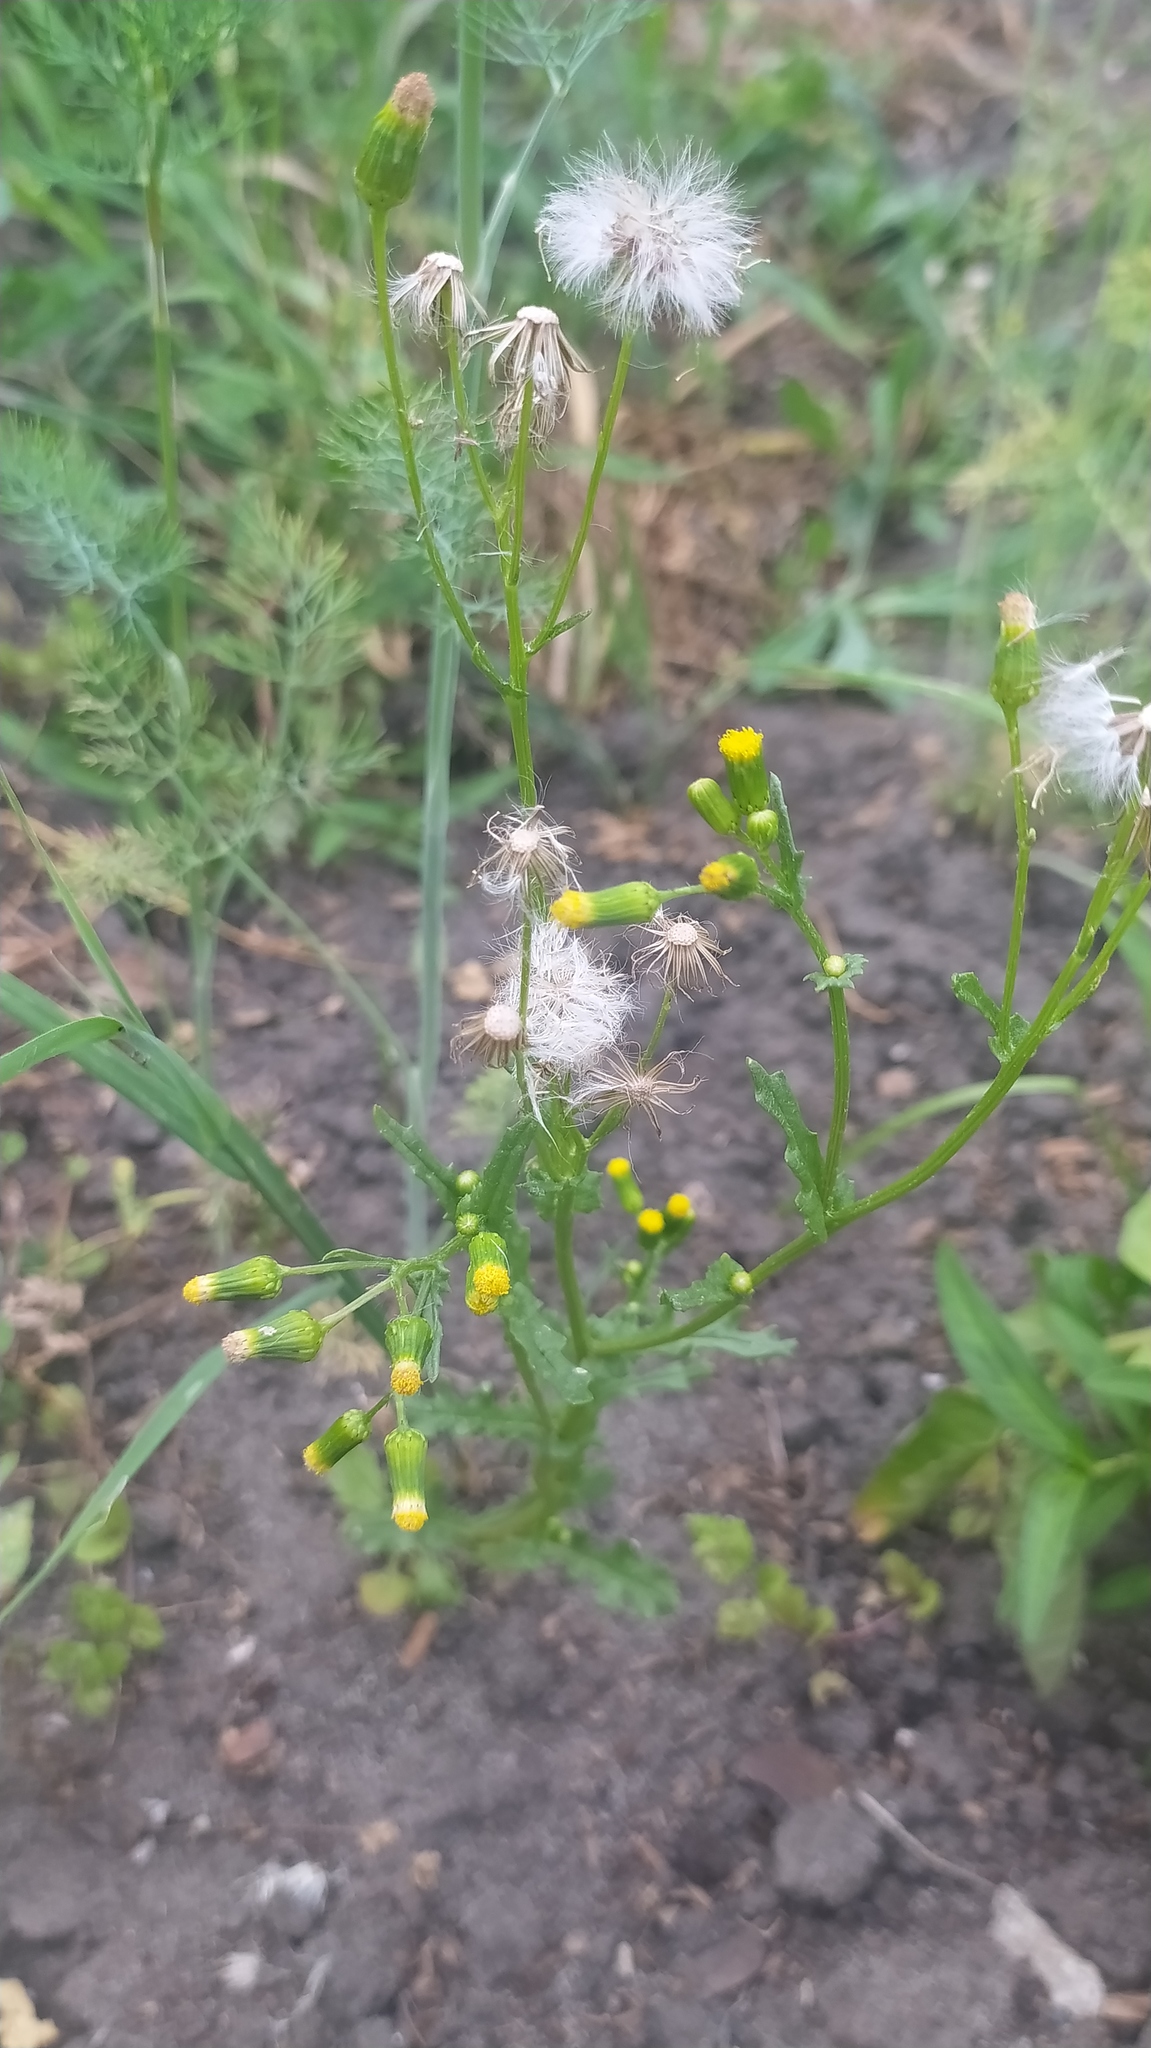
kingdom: Plantae
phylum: Tracheophyta
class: Magnoliopsida
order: Asterales
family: Asteraceae
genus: Senecio
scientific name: Senecio vulgaris
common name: Old-man-in-the-spring
